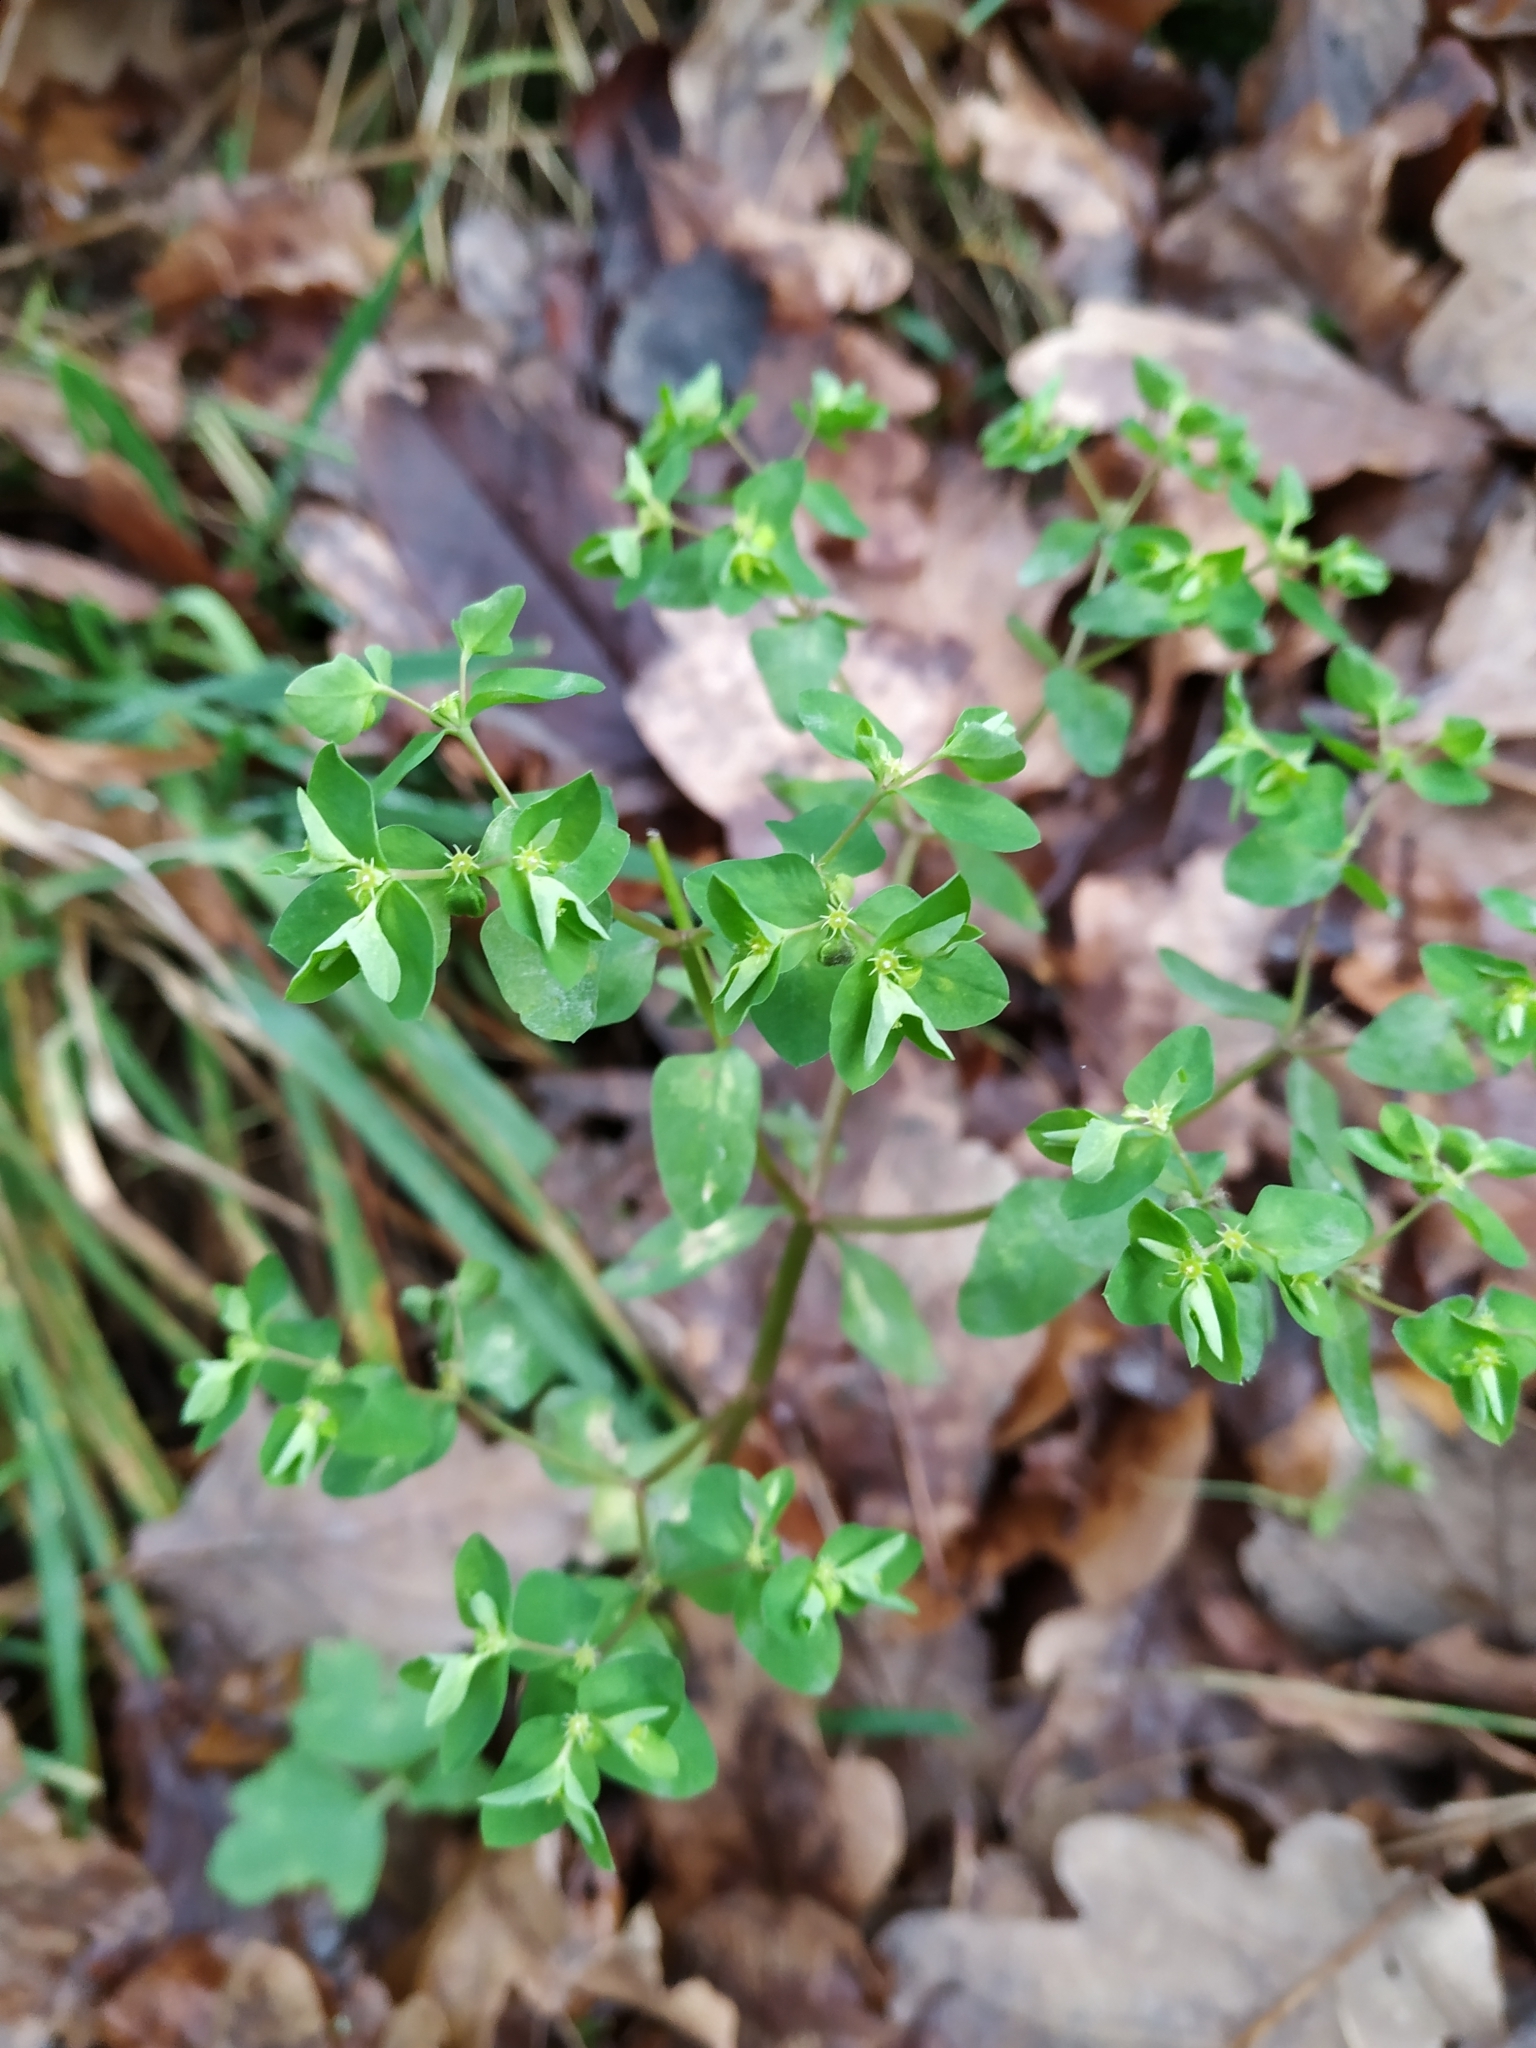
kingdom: Plantae
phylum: Tracheophyta
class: Magnoliopsida
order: Malpighiales
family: Euphorbiaceae
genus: Euphorbia
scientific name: Euphorbia peplus
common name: Petty spurge
